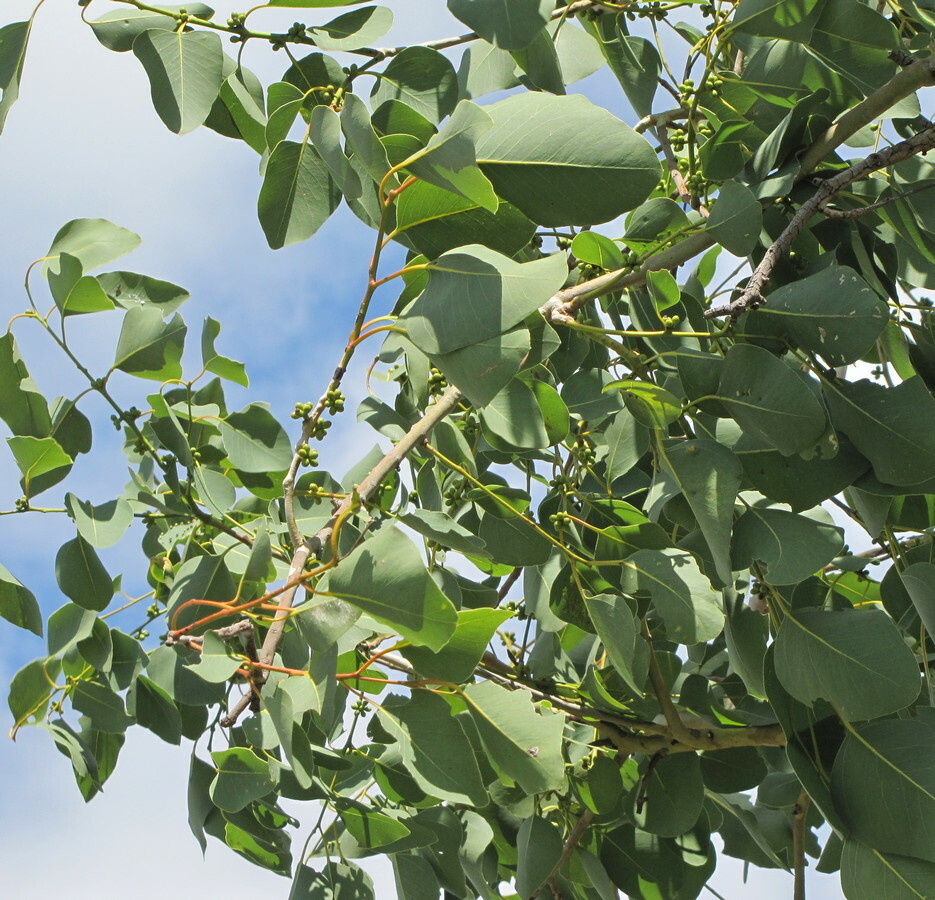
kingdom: Plantae
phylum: Tracheophyta
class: Magnoliopsida
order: Myrtales
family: Myrtaceae
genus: Eucalyptus
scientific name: Eucalyptus platyphylla
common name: Poplar-gum
